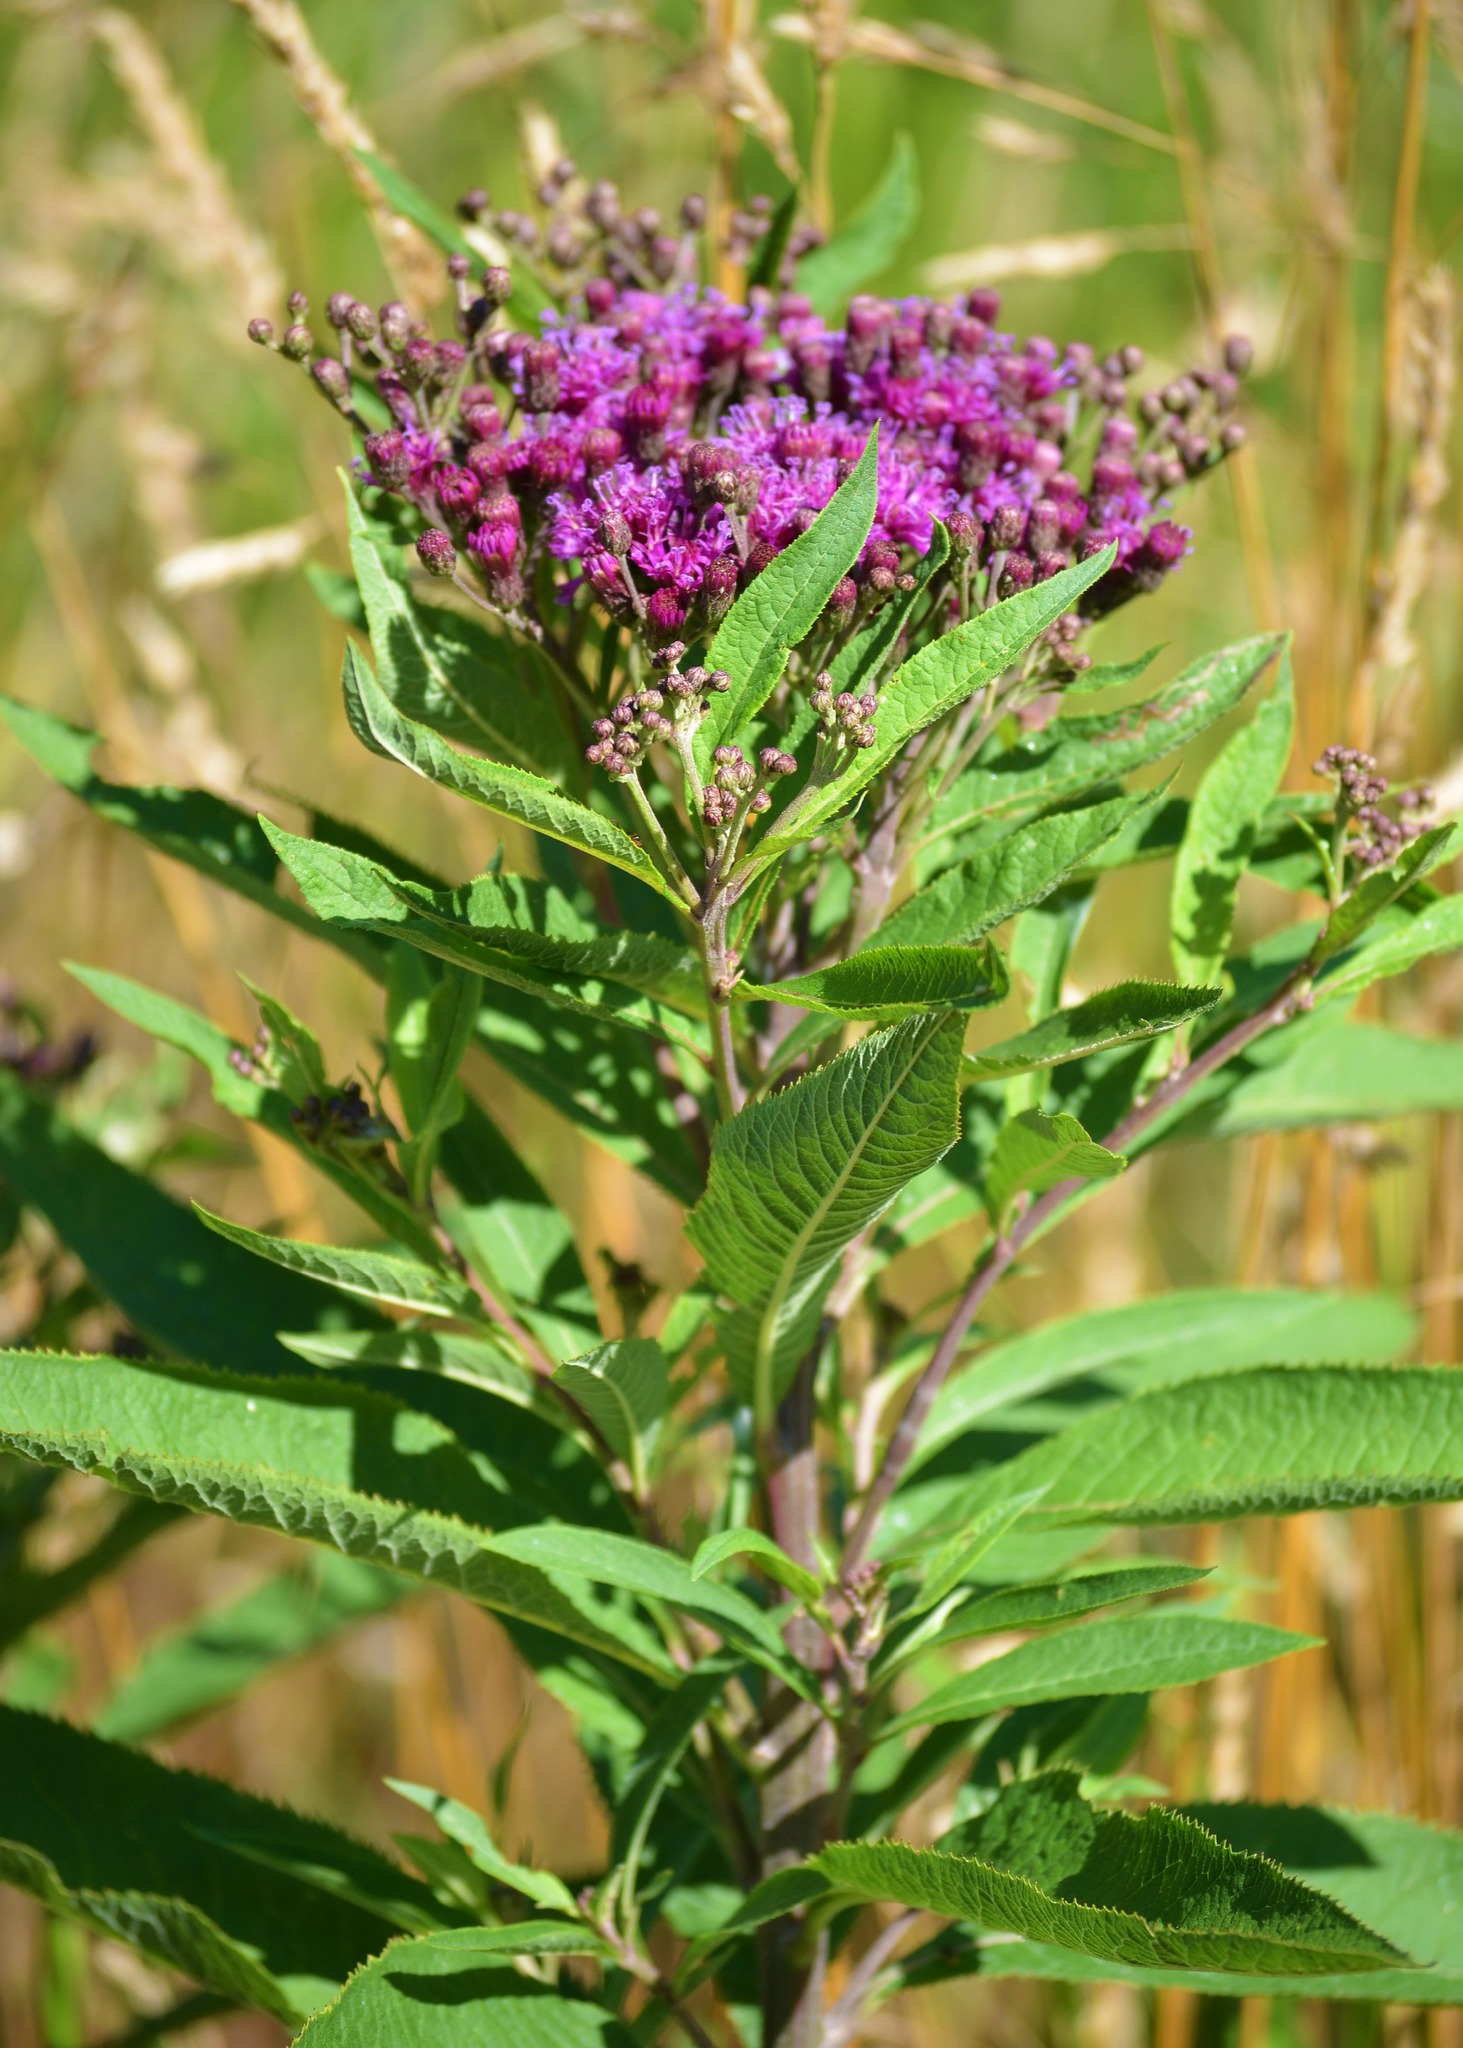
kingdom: Plantae
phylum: Tracheophyta
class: Magnoliopsida
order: Asterales
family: Asteraceae
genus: Vernonia
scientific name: Vernonia gigantea
